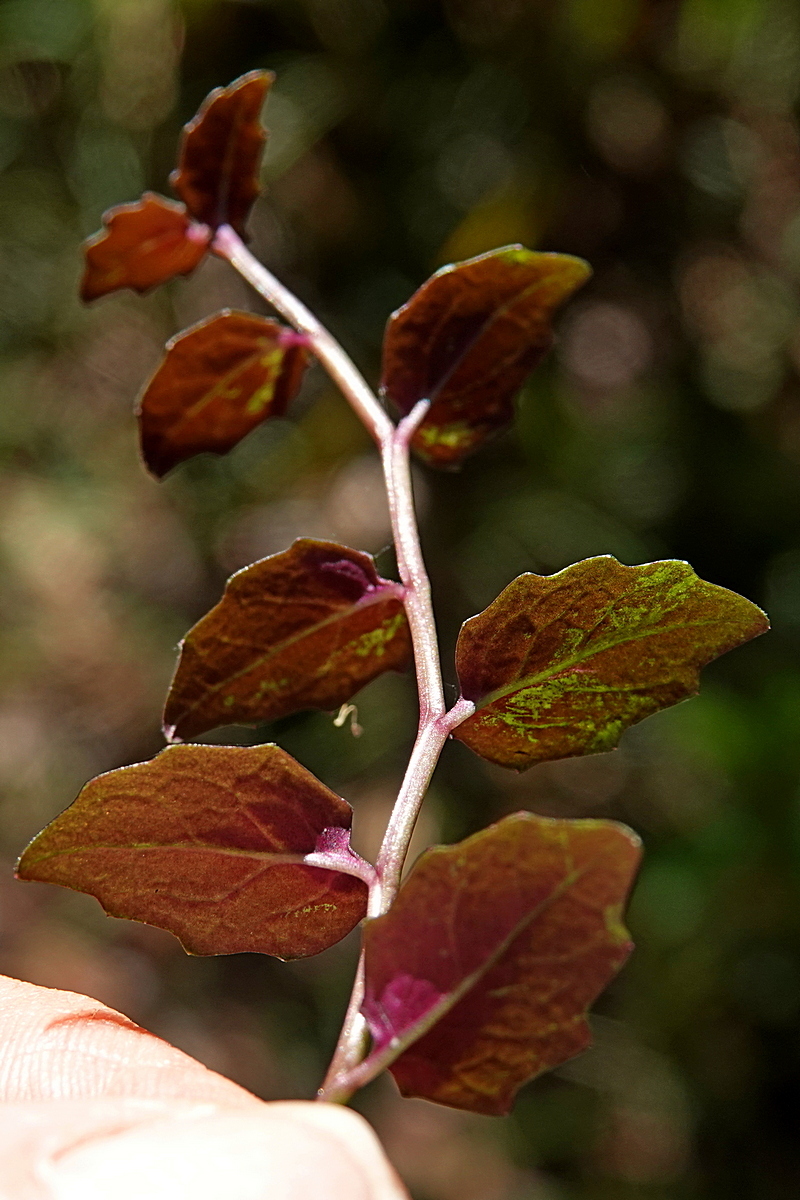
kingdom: Plantae
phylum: Tracheophyta
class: Magnoliopsida
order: Asterales
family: Campanulaceae
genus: Lobelia
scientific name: Lobelia purpurascens
